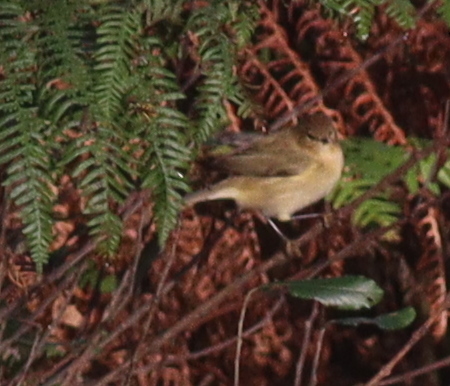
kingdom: Animalia
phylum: Chordata
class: Aves
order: Passeriformes
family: Phylloscopidae
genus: Phylloscopus
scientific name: Phylloscopus collybita
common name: Common chiffchaff
